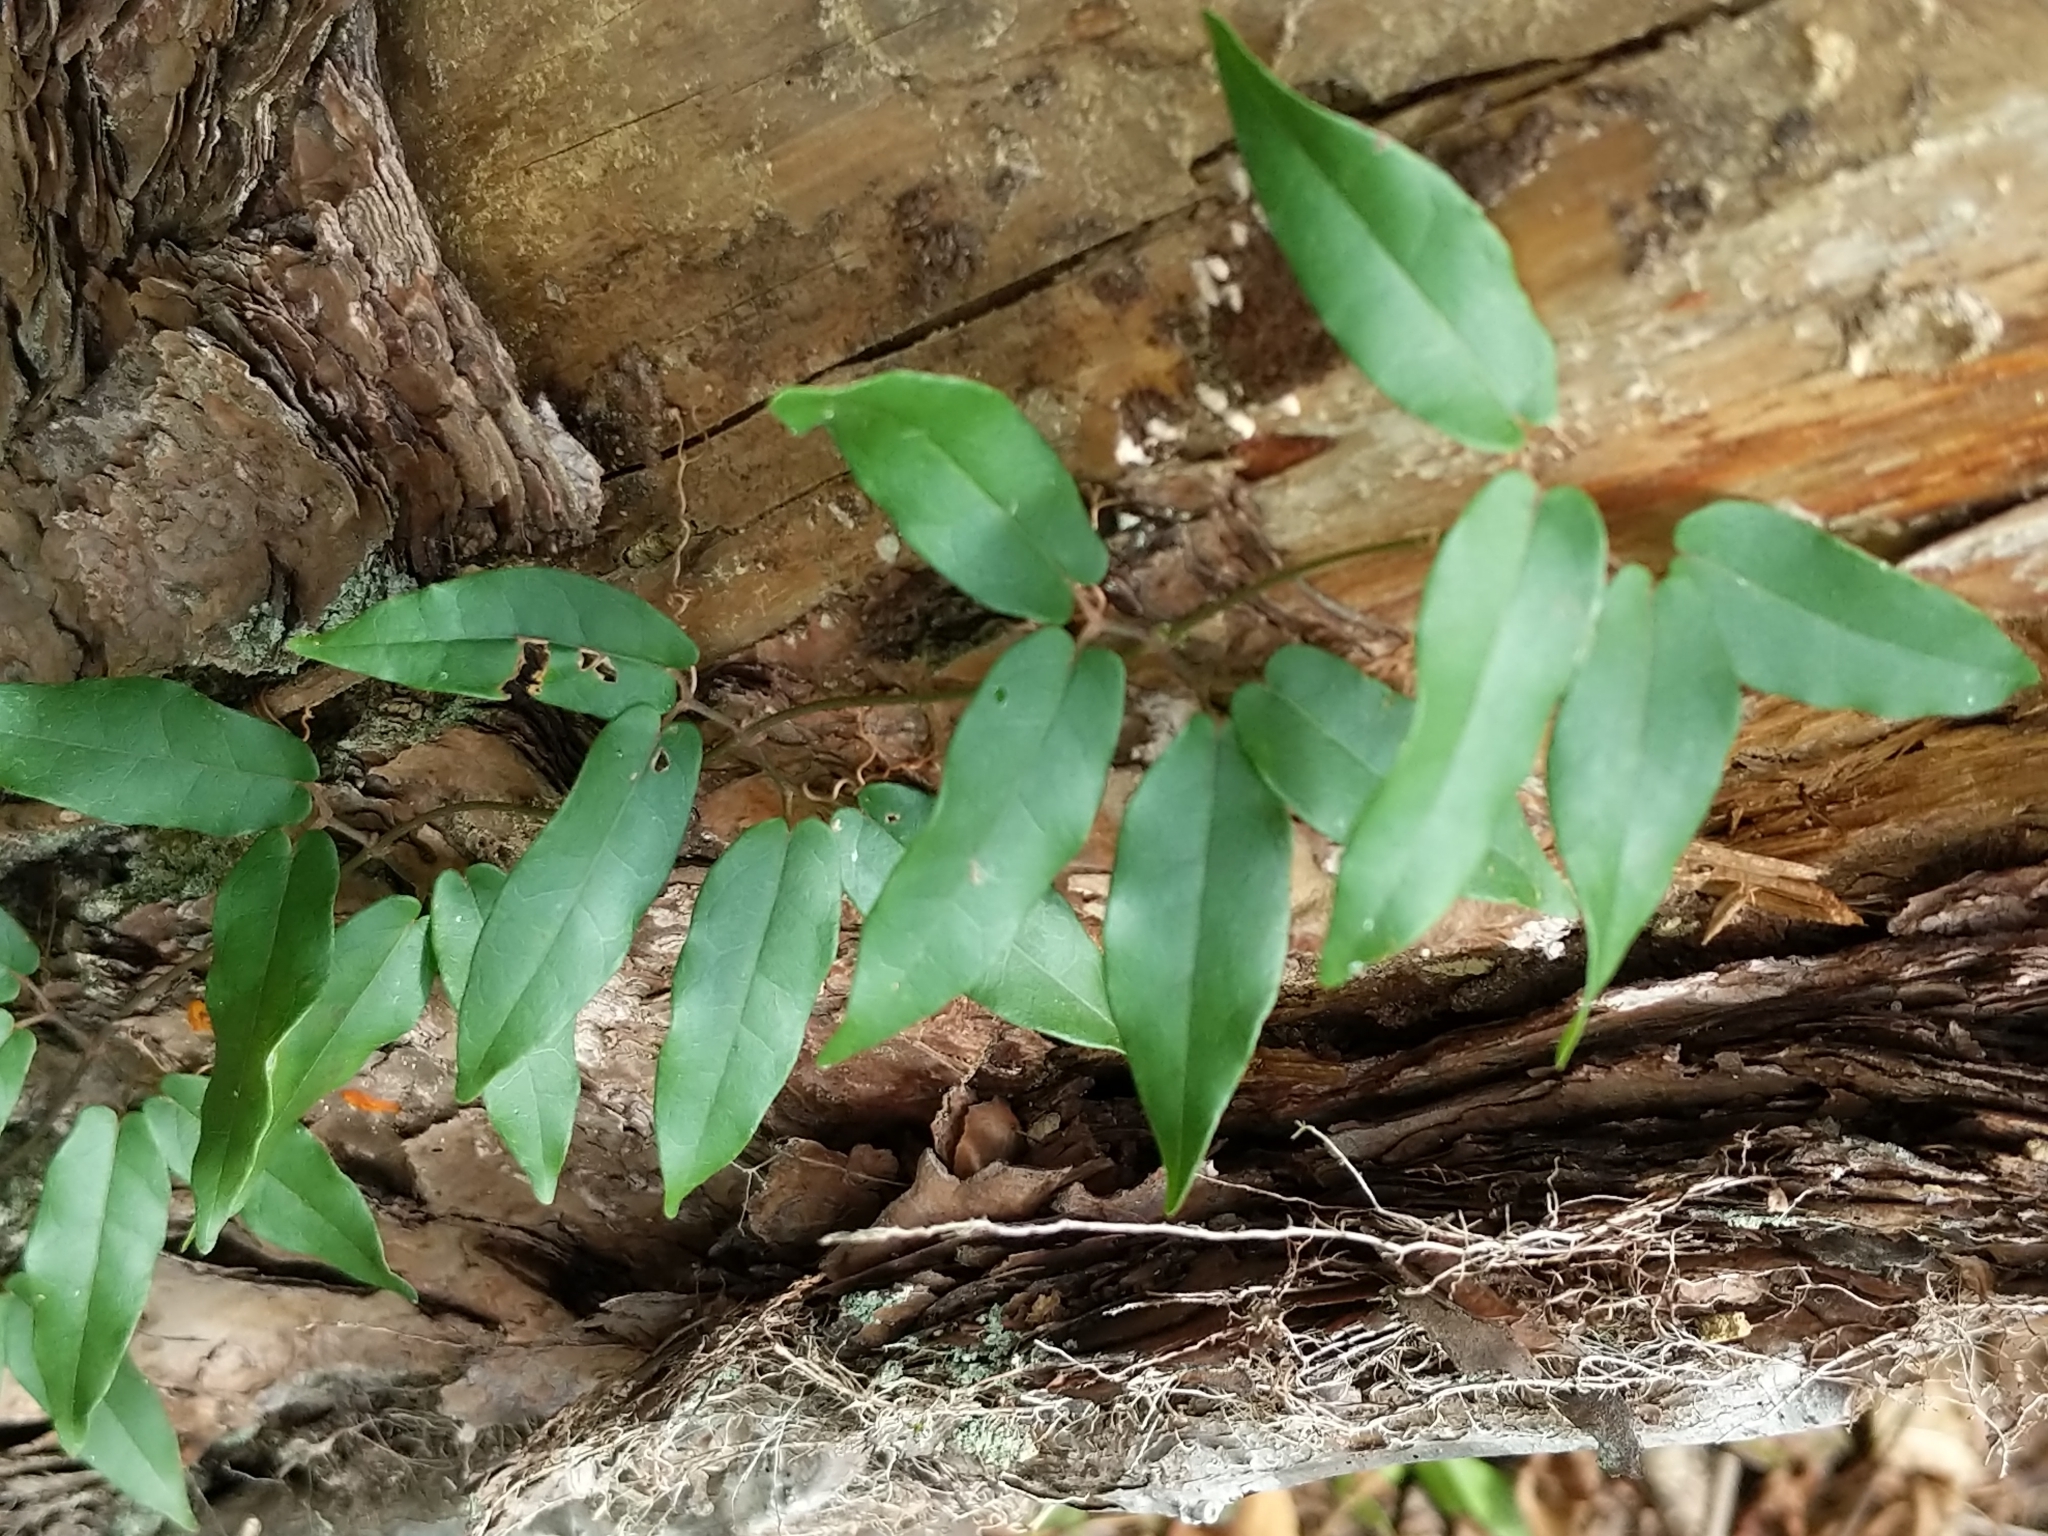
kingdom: Plantae
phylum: Tracheophyta
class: Magnoliopsida
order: Lamiales
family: Bignoniaceae
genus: Bignonia
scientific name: Bignonia capreolata
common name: Crossvine
